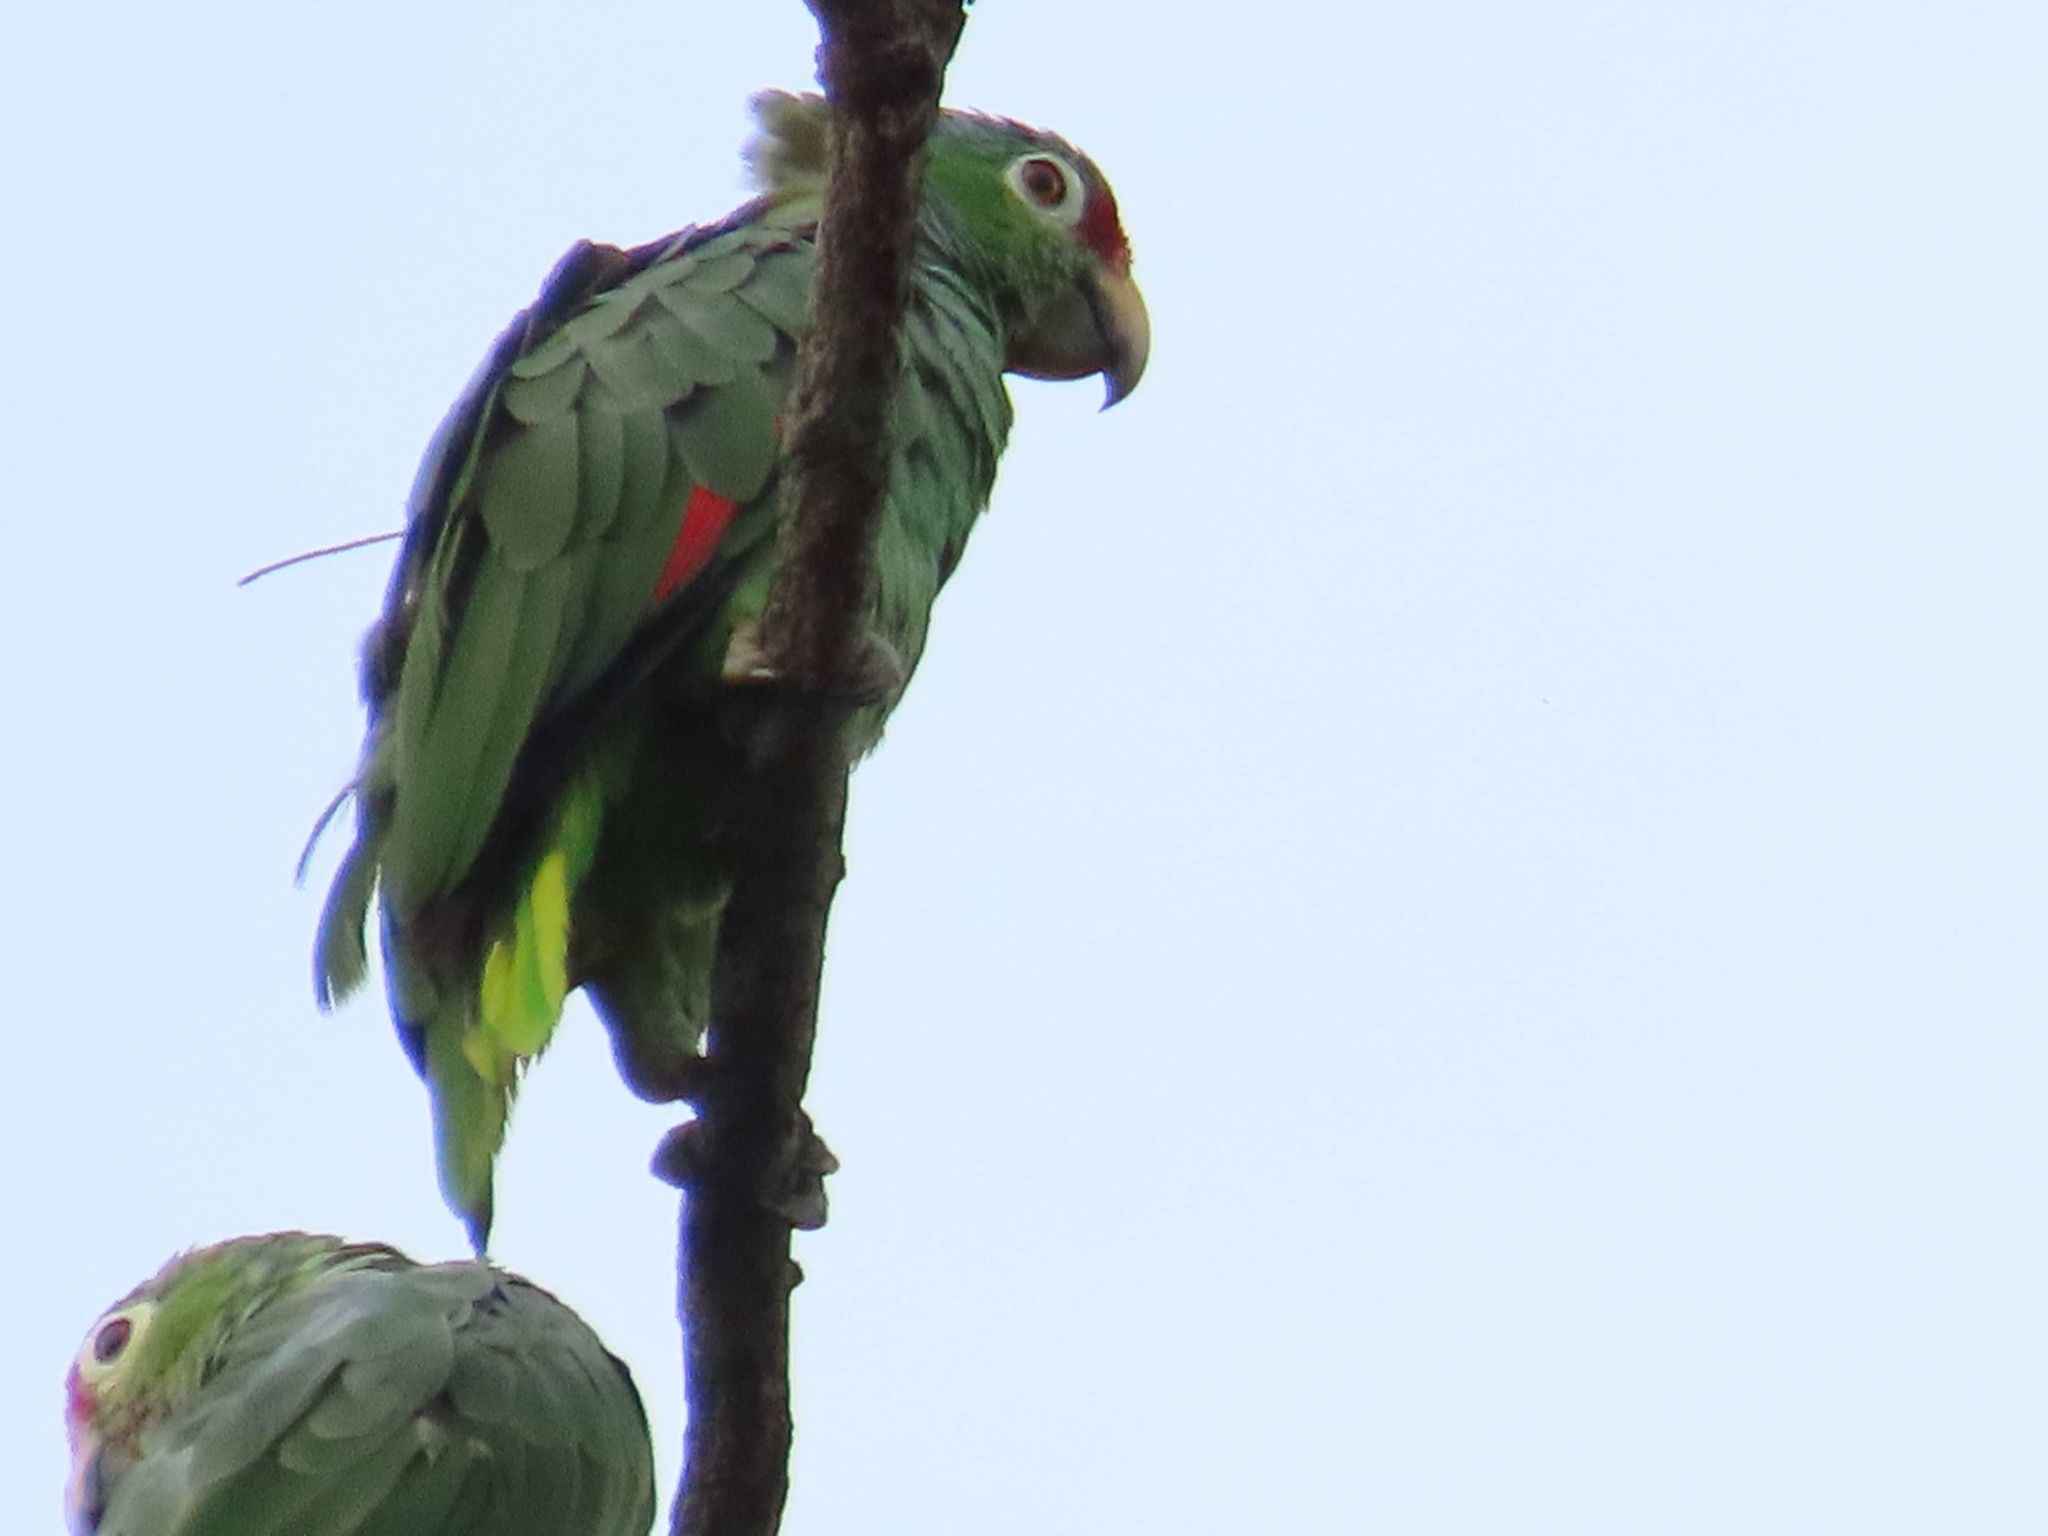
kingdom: Animalia
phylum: Chordata
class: Aves
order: Psittaciformes
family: Psittacidae
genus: Amazona
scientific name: Amazona autumnalis
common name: Red-lored amazon
